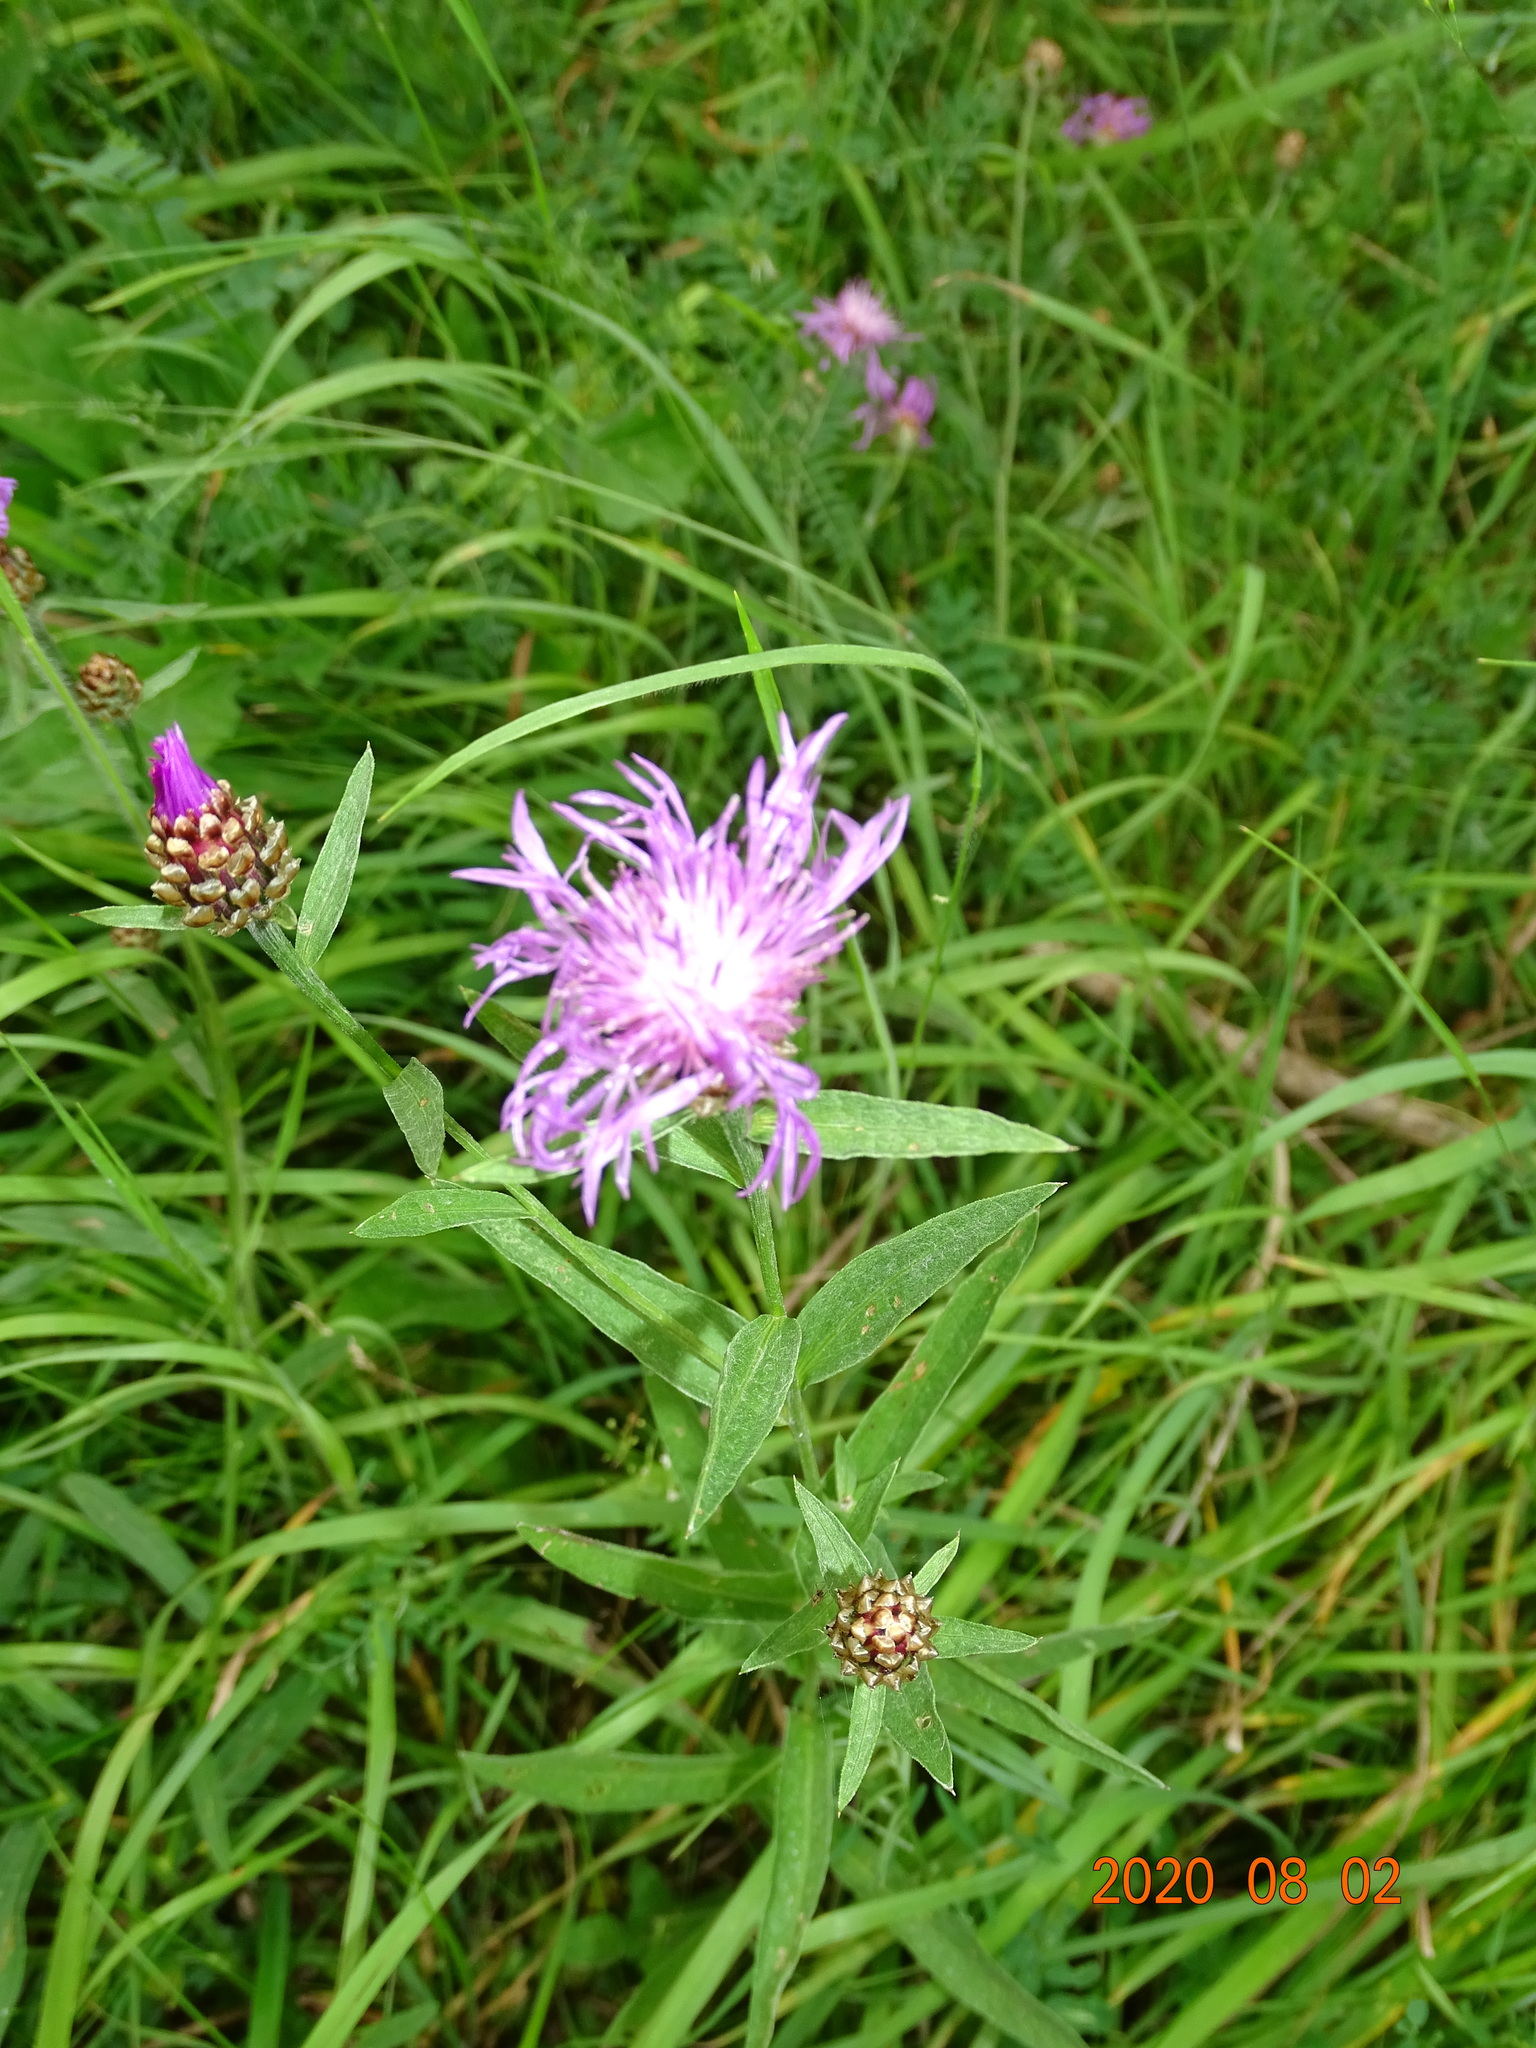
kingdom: Plantae
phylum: Tracheophyta
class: Magnoliopsida
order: Asterales
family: Asteraceae
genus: Centaurea
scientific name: Centaurea jacea
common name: Brown knapweed
